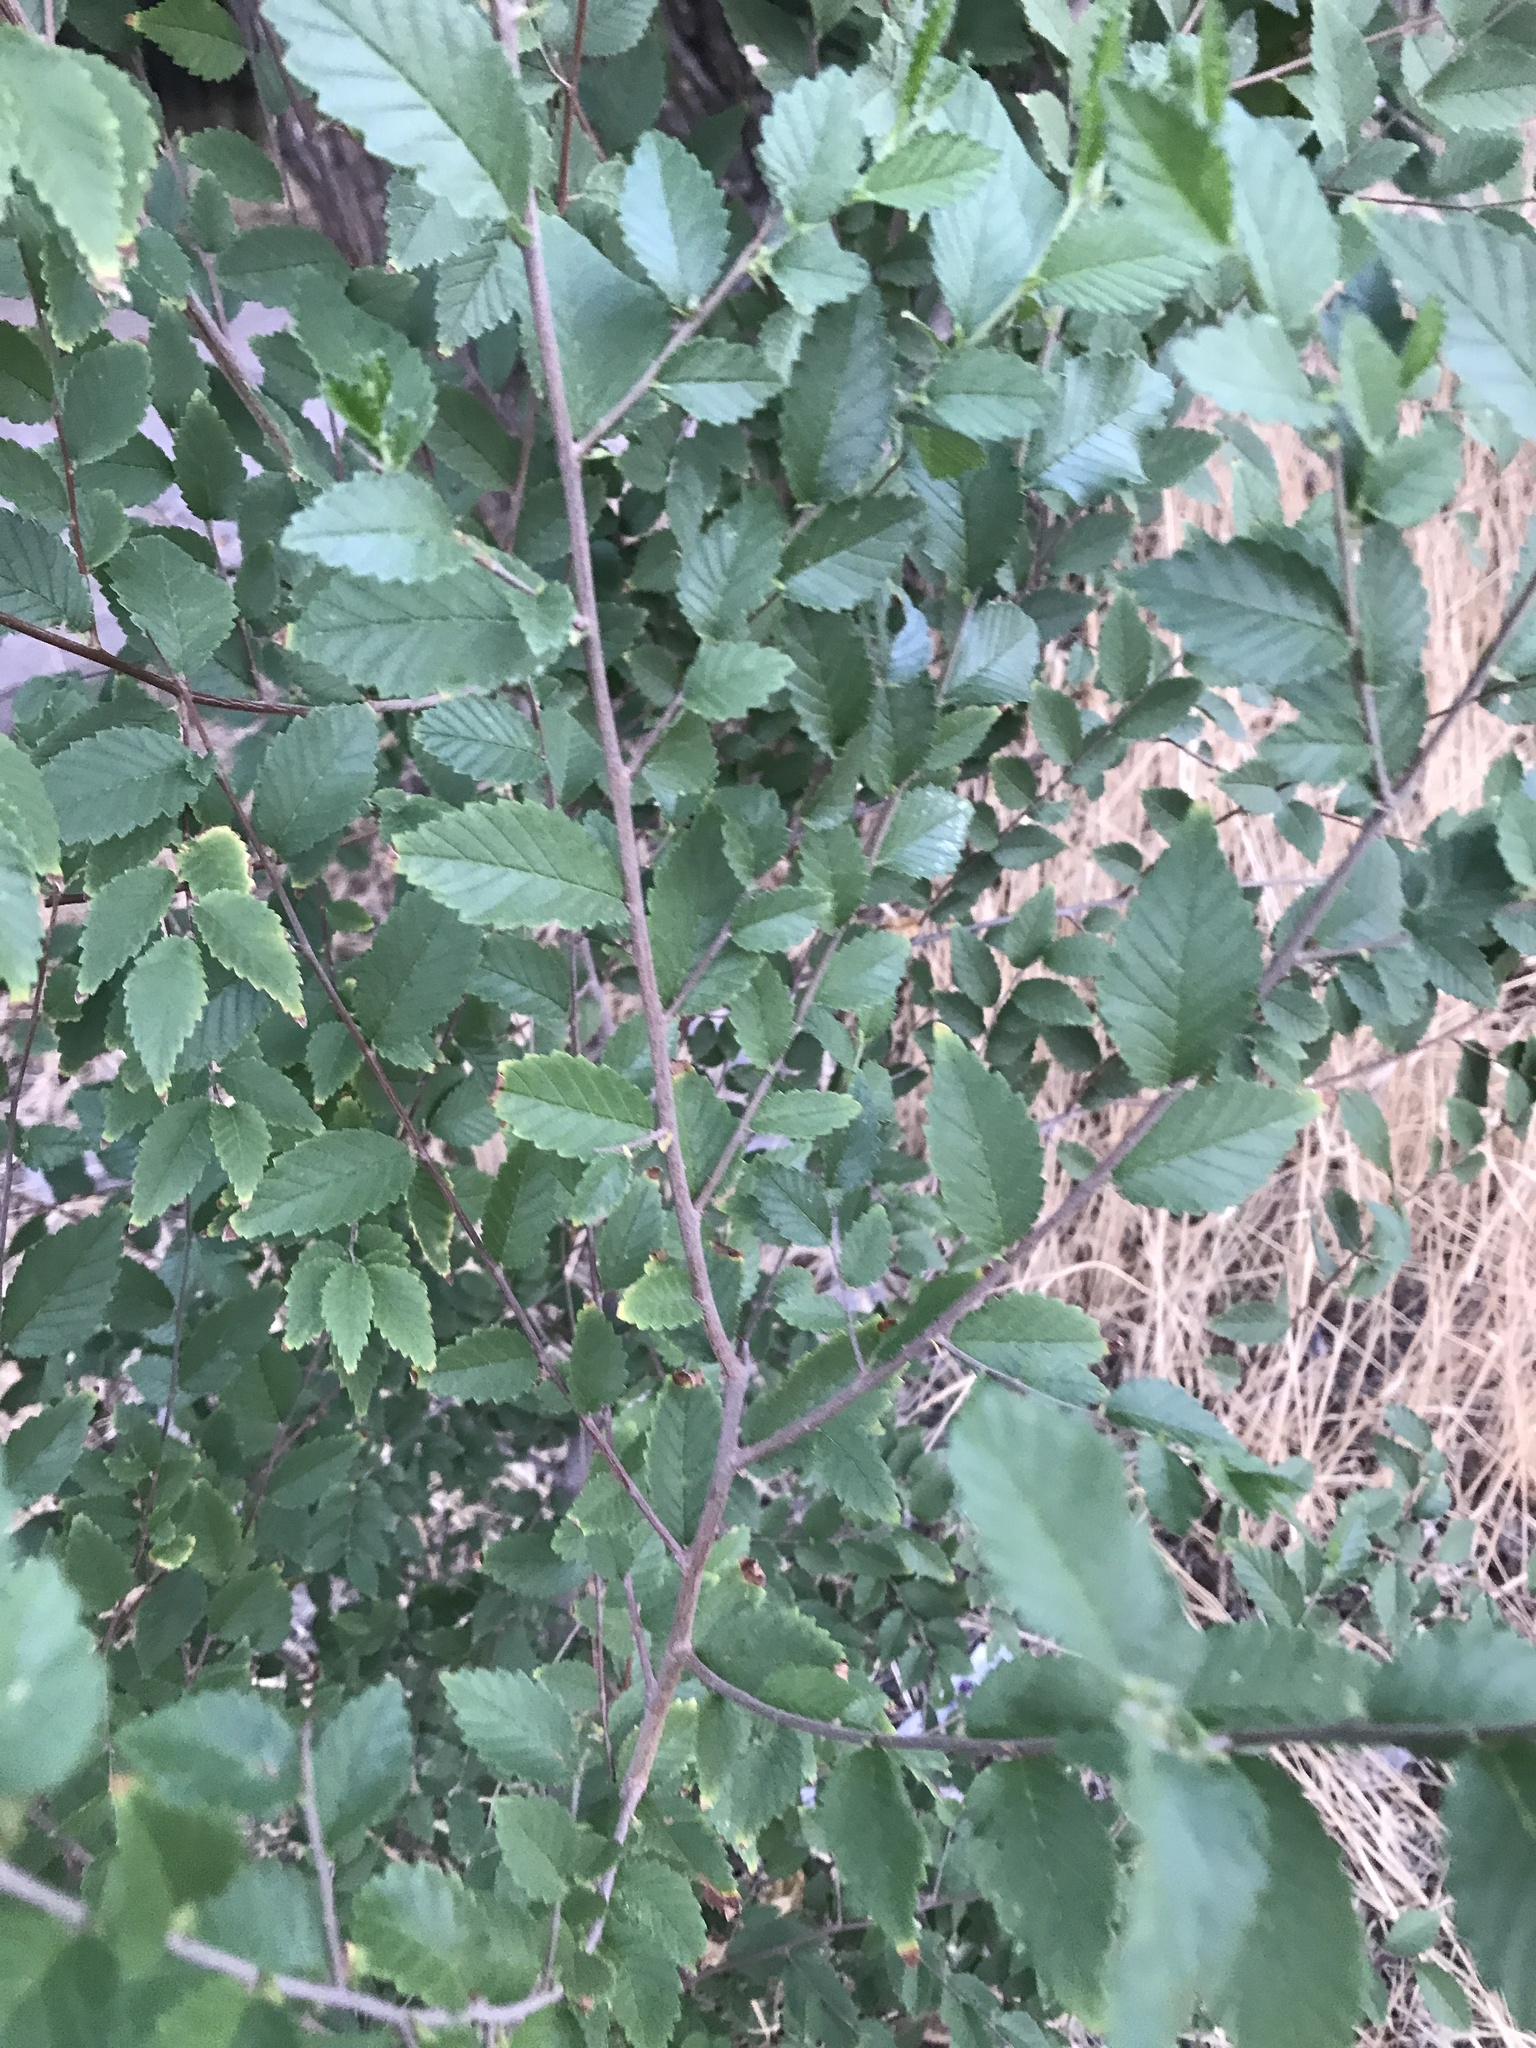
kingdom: Plantae
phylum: Tracheophyta
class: Magnoliopsida
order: Rosales
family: Ulmaceae
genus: Ulmus
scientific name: Ulmus
